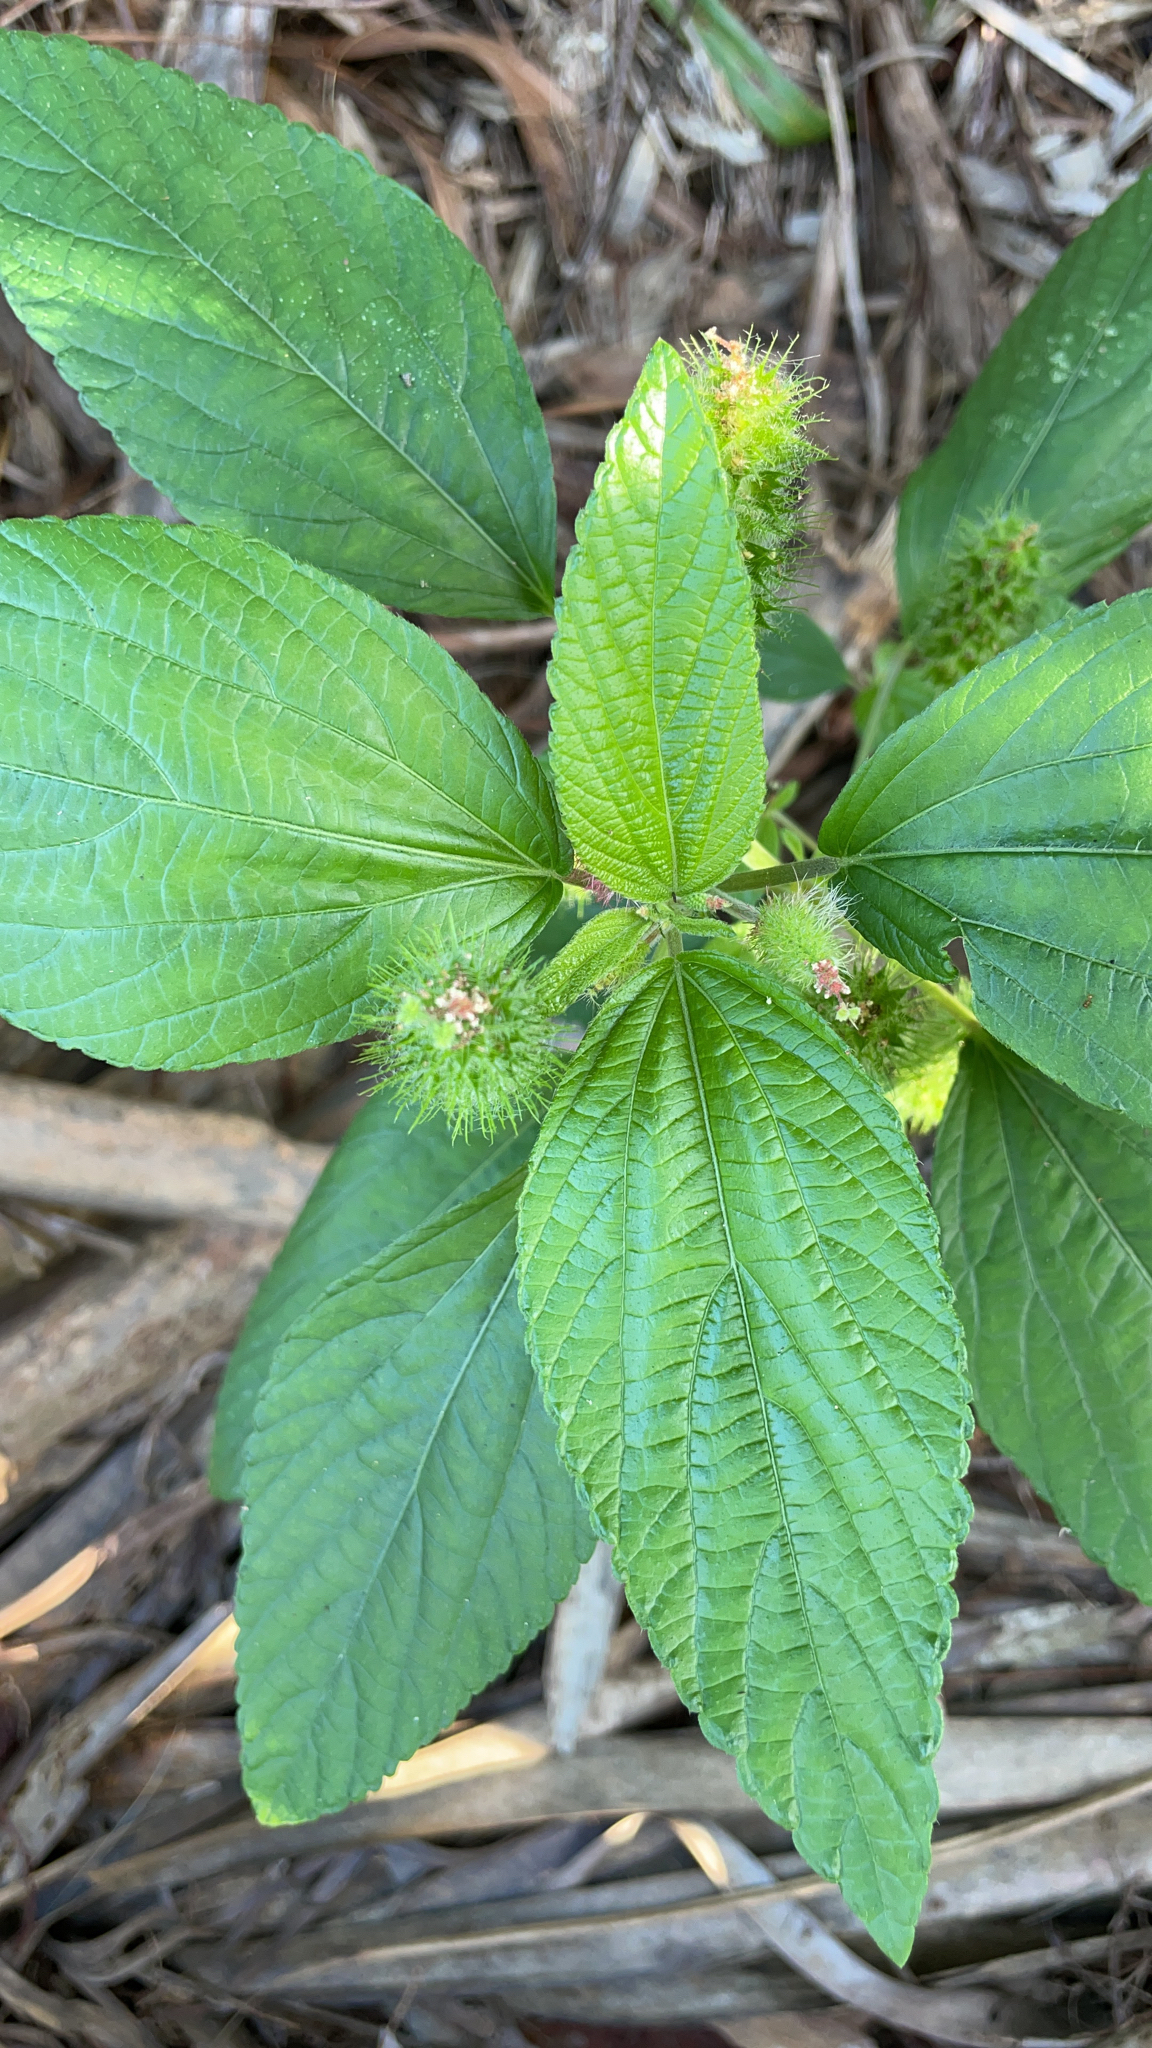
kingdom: Plantae
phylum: Tracheophyta
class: Magnoliopsida
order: Malpighiales
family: Euphorbiaceae
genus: Acalypha
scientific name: Acalypha arvensis
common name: Field copperleaf
